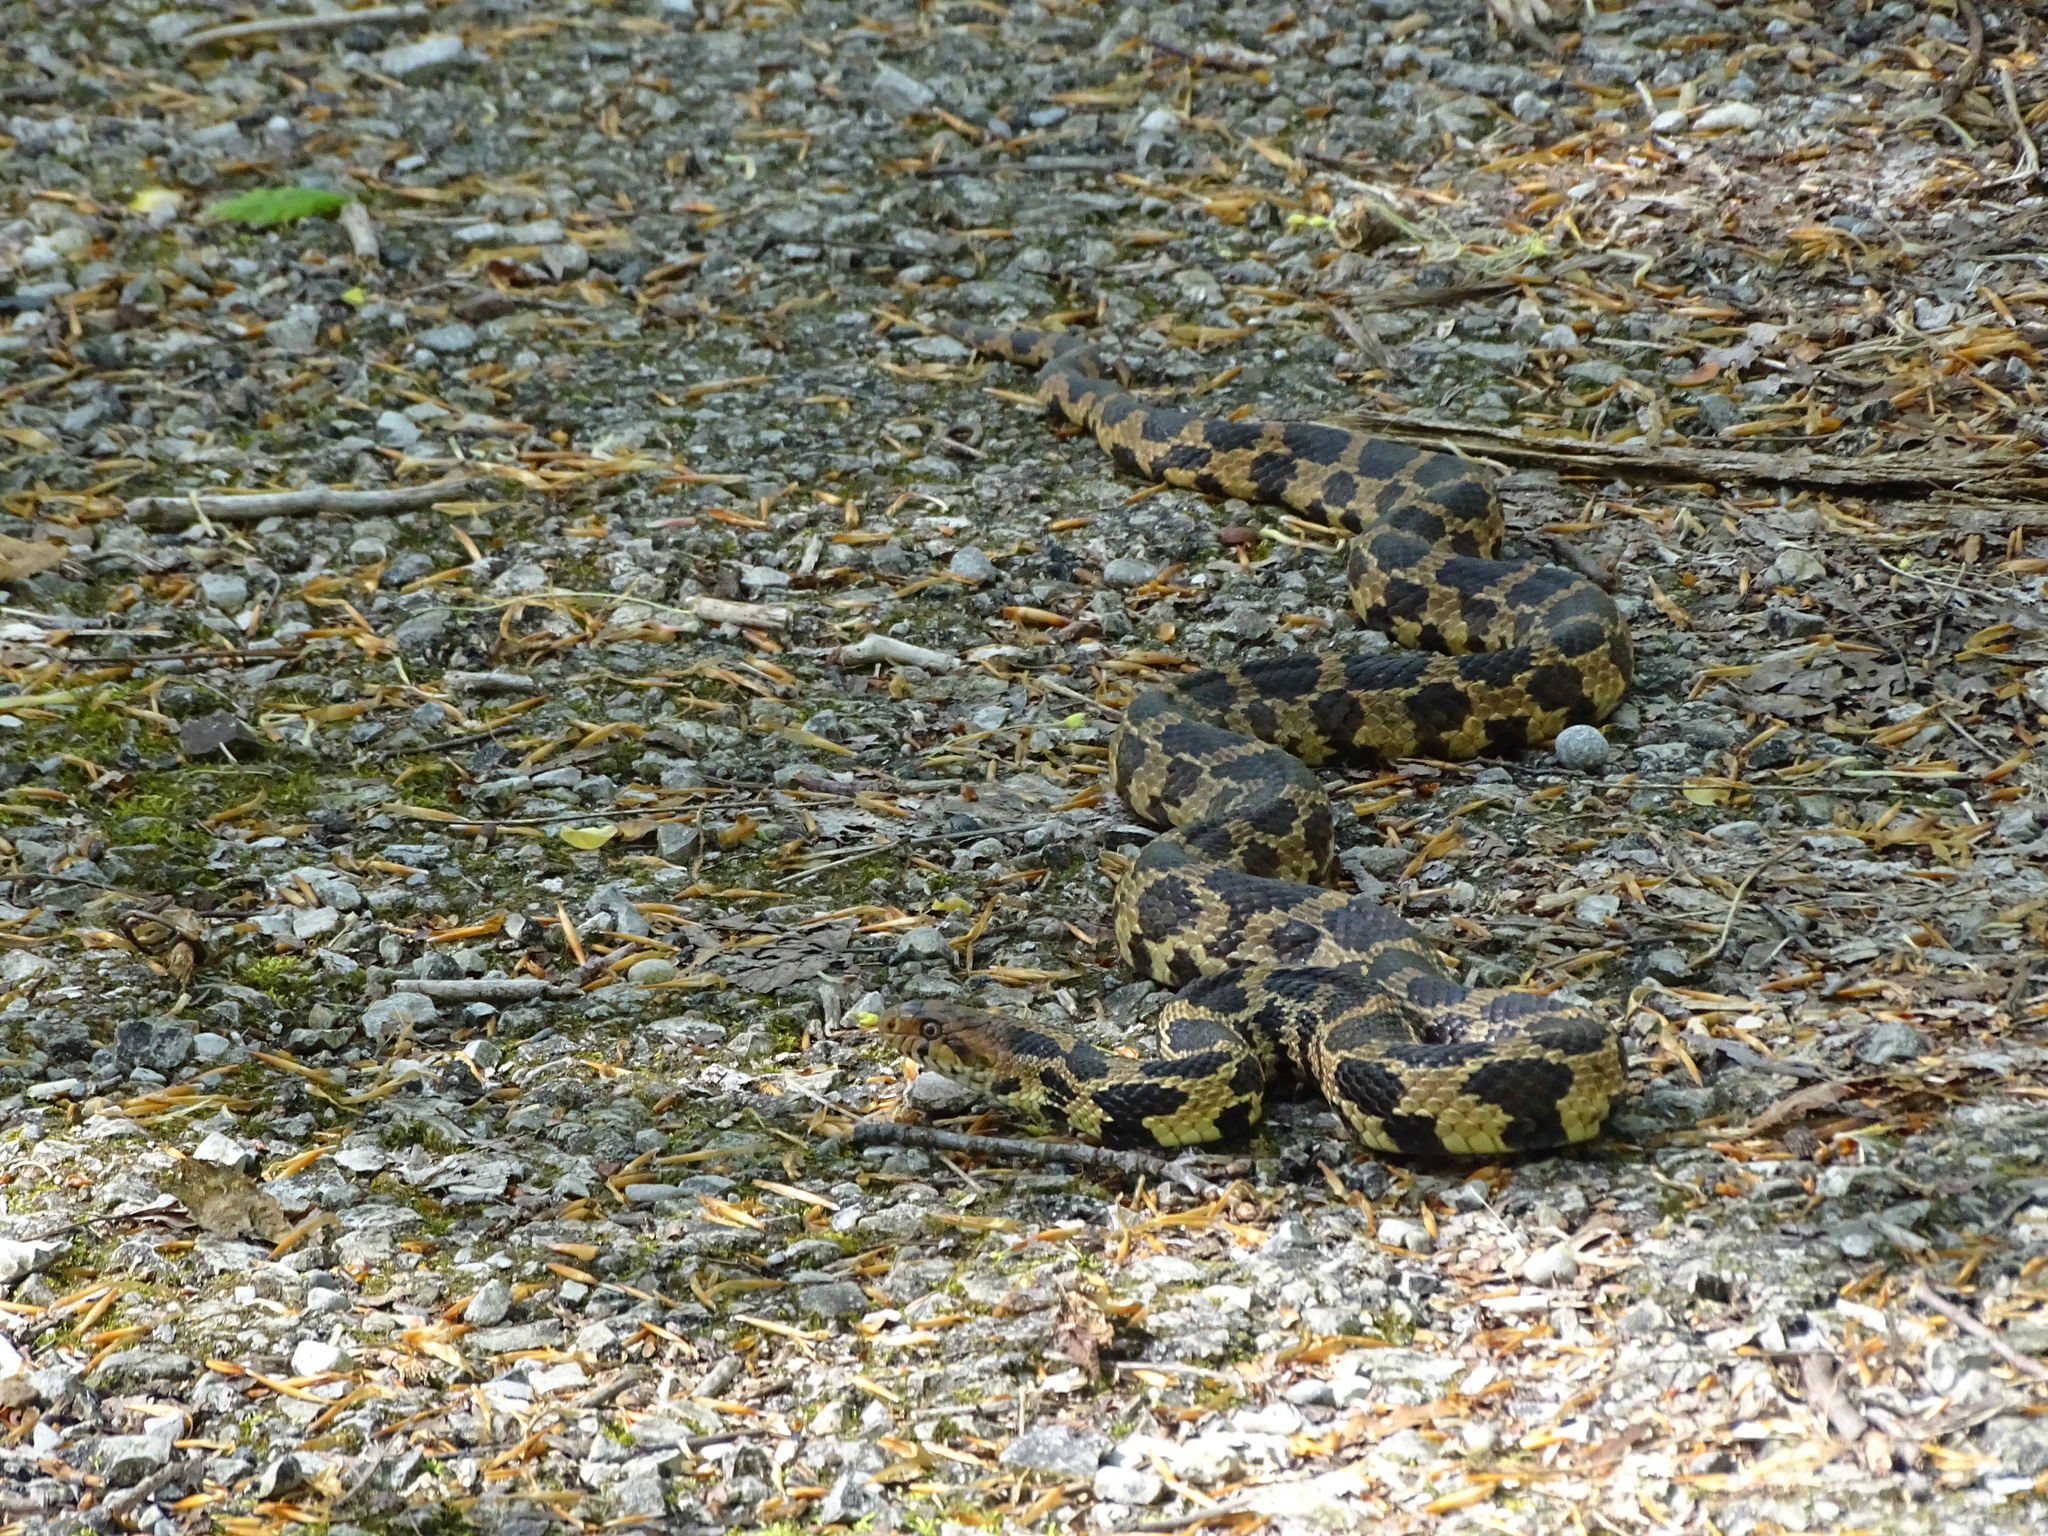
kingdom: Animalia
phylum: Chordata
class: Squamata
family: Colubridae
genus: Pantherophis
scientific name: Pantherophis vulpinus
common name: Eastern fox snake
